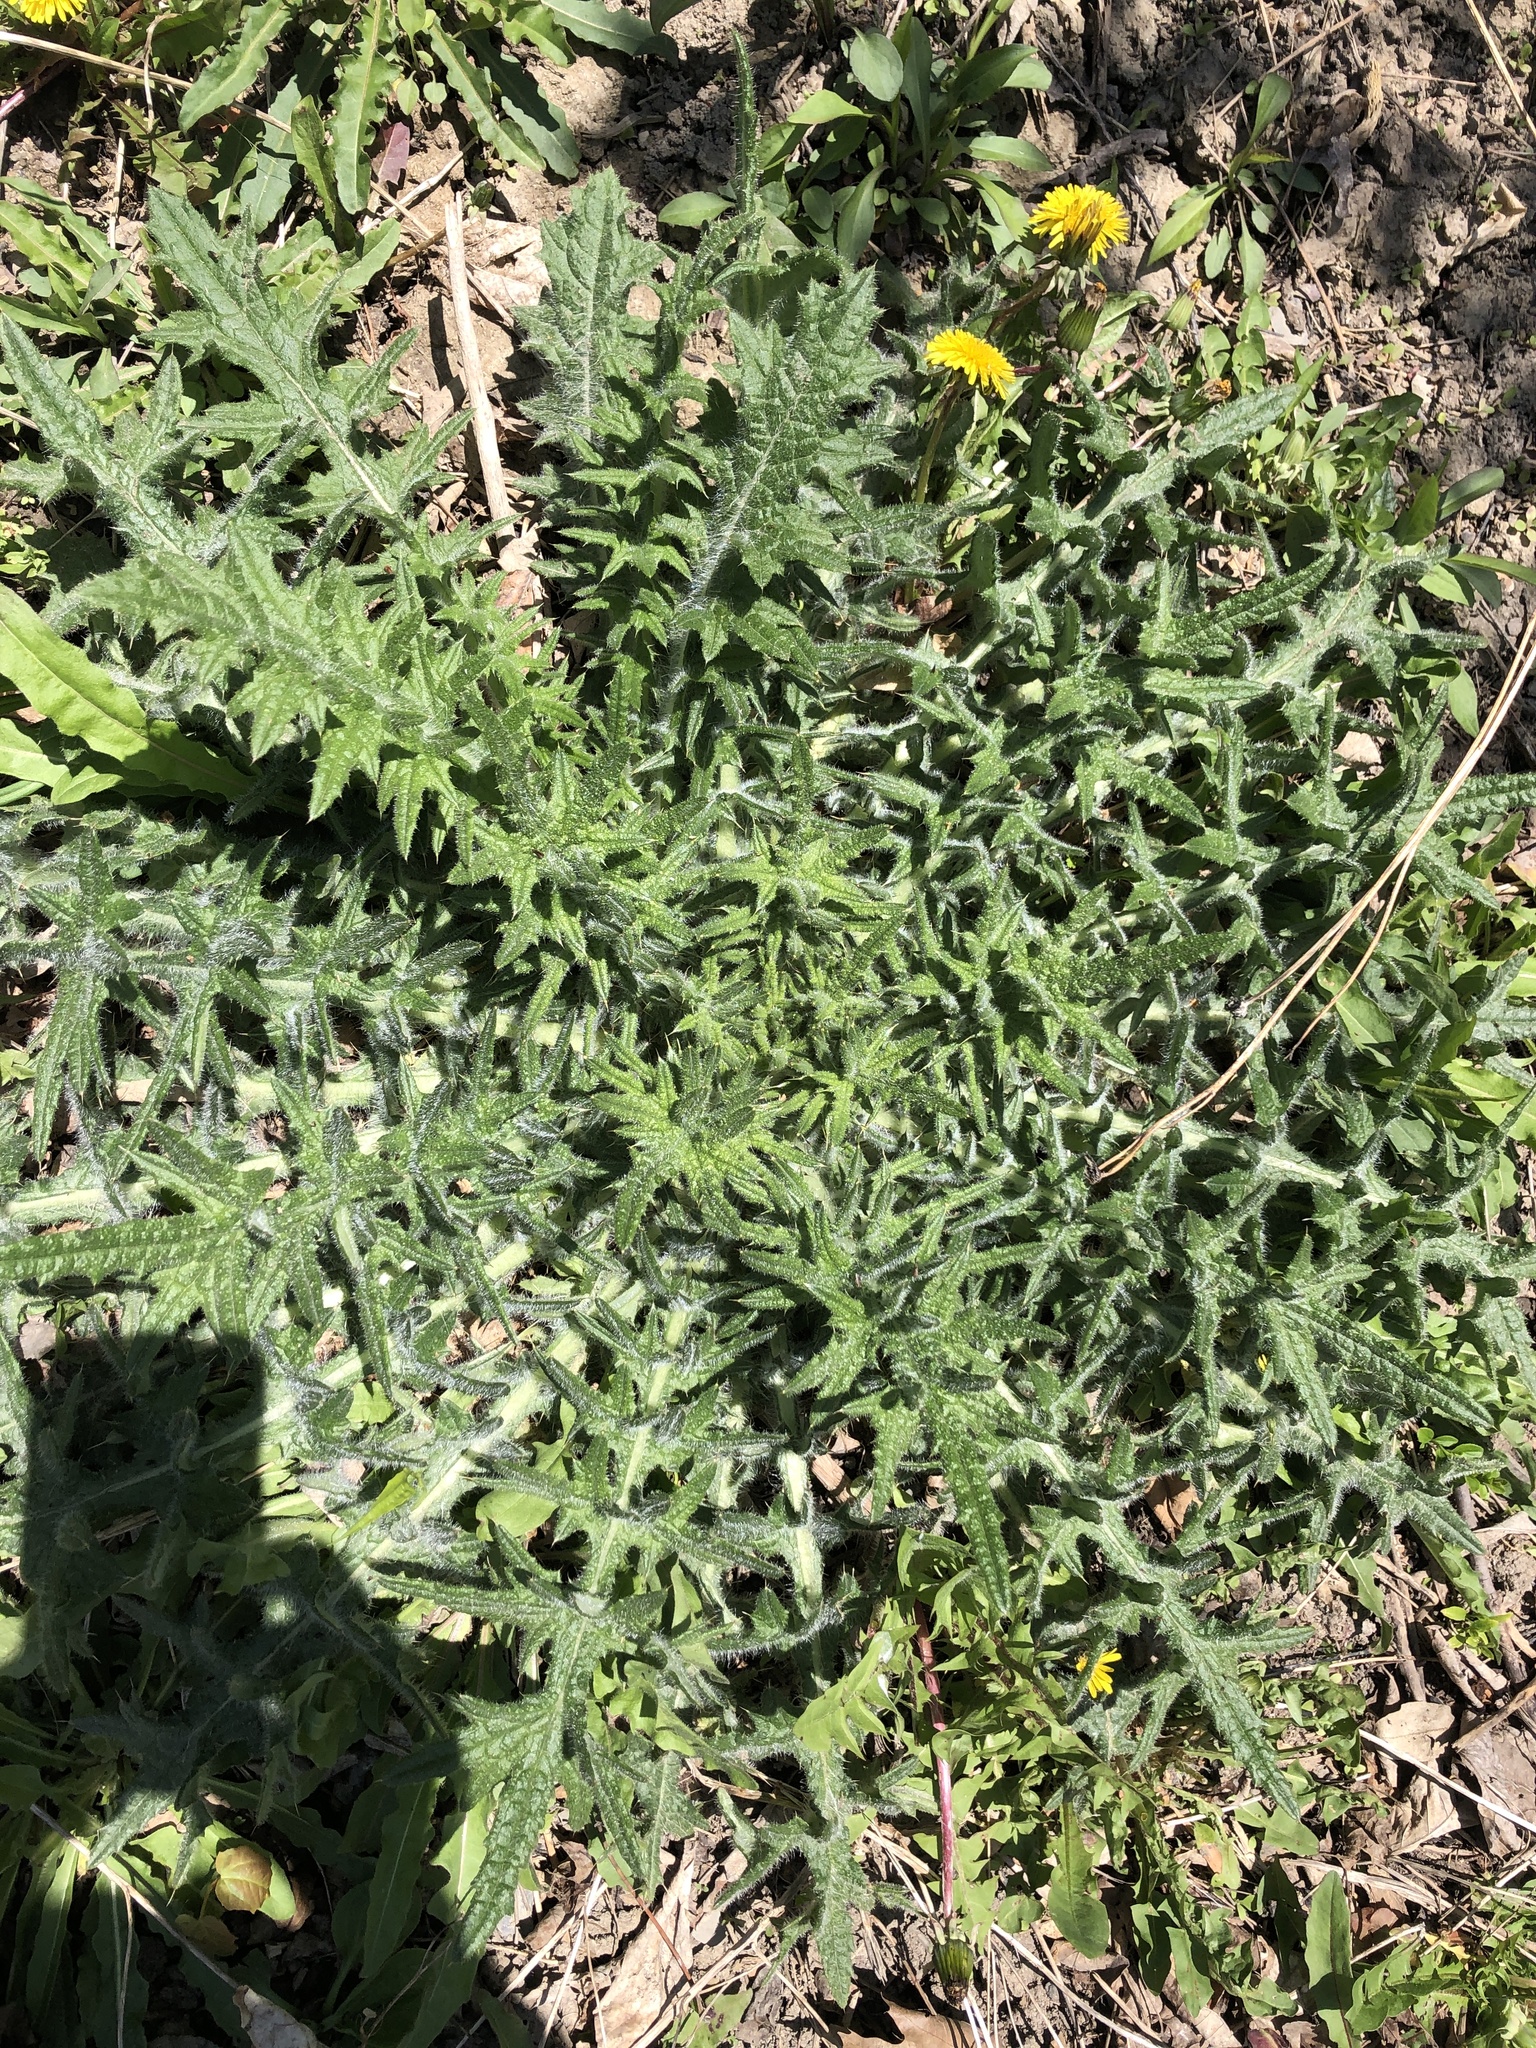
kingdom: Plantae
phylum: Tracheophyta
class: Magnoliopsida
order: Asterales
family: Asteraceae
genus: Cirsium
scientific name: Cirsium vulgare
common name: Bull thistle
